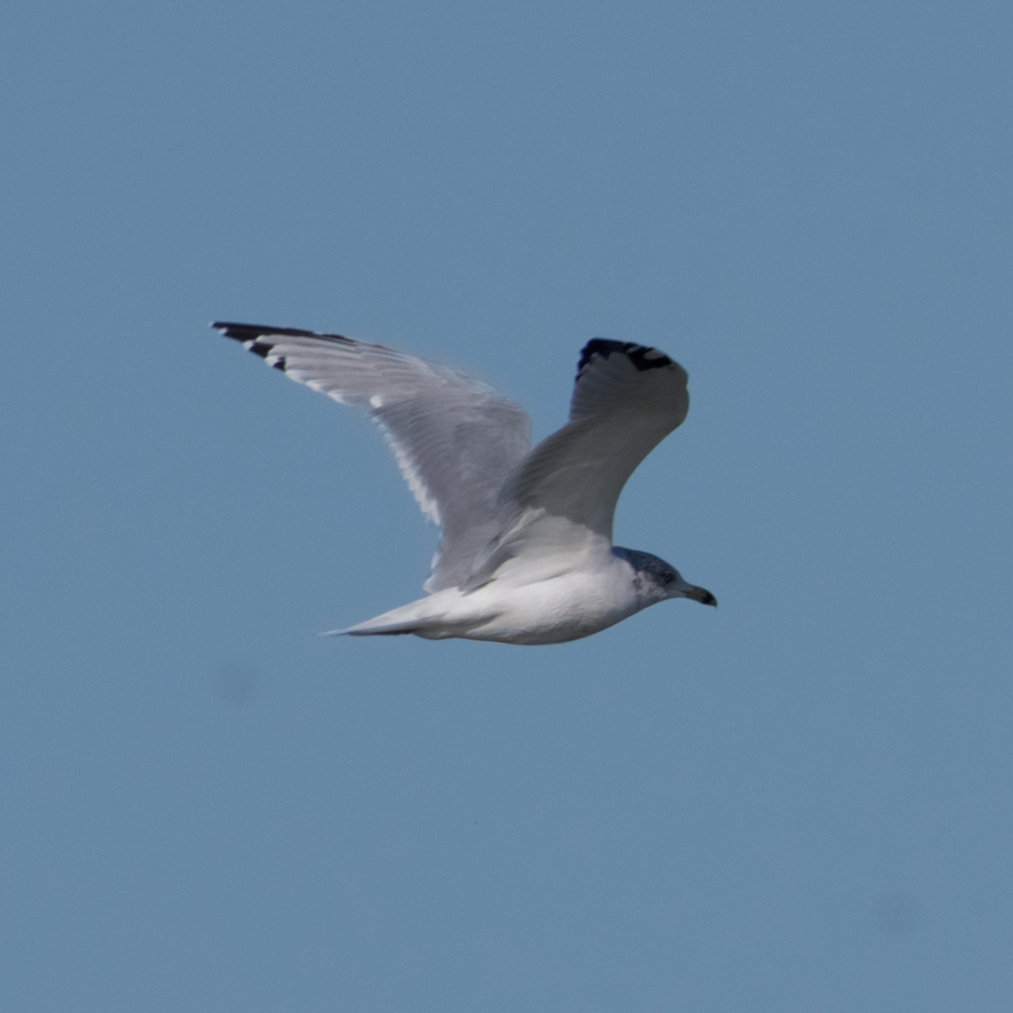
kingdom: Animalia
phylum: Chordata
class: Aves
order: Charadriiformes
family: Laridae
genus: Larus
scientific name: Larus delawarensis
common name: Ring-billed gull
